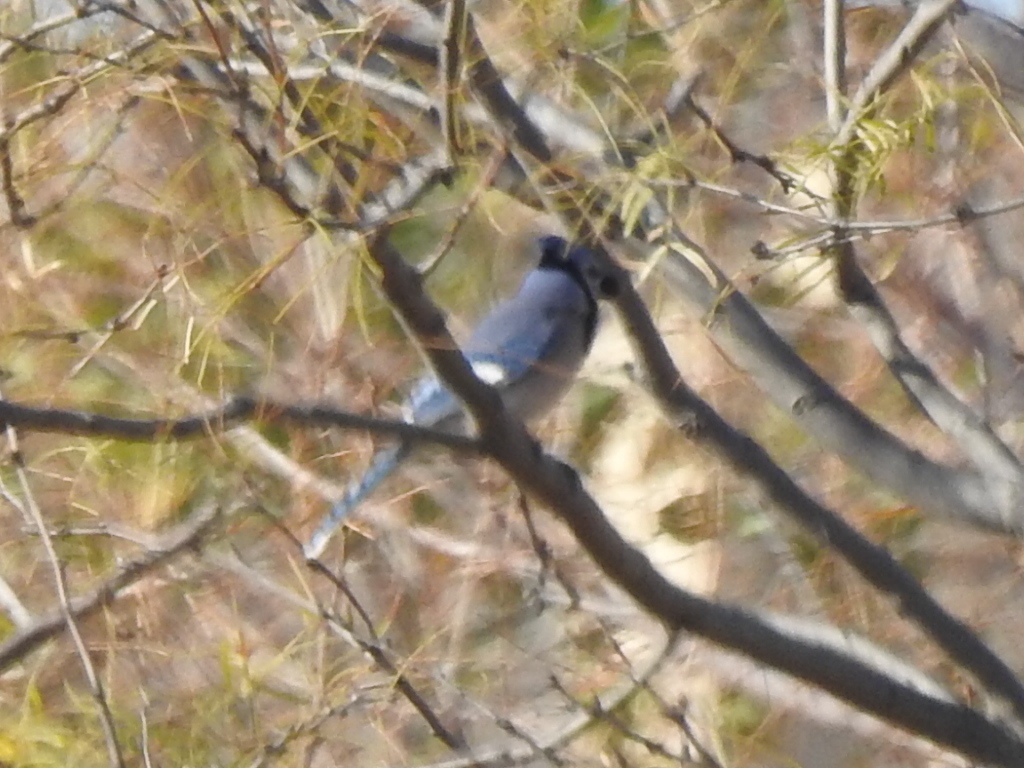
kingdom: Animalia
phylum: Chordata
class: Aves
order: Passeriformes
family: Corvidae
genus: Cyanocitta
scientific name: Cyanocitta cristata
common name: Blue jay
